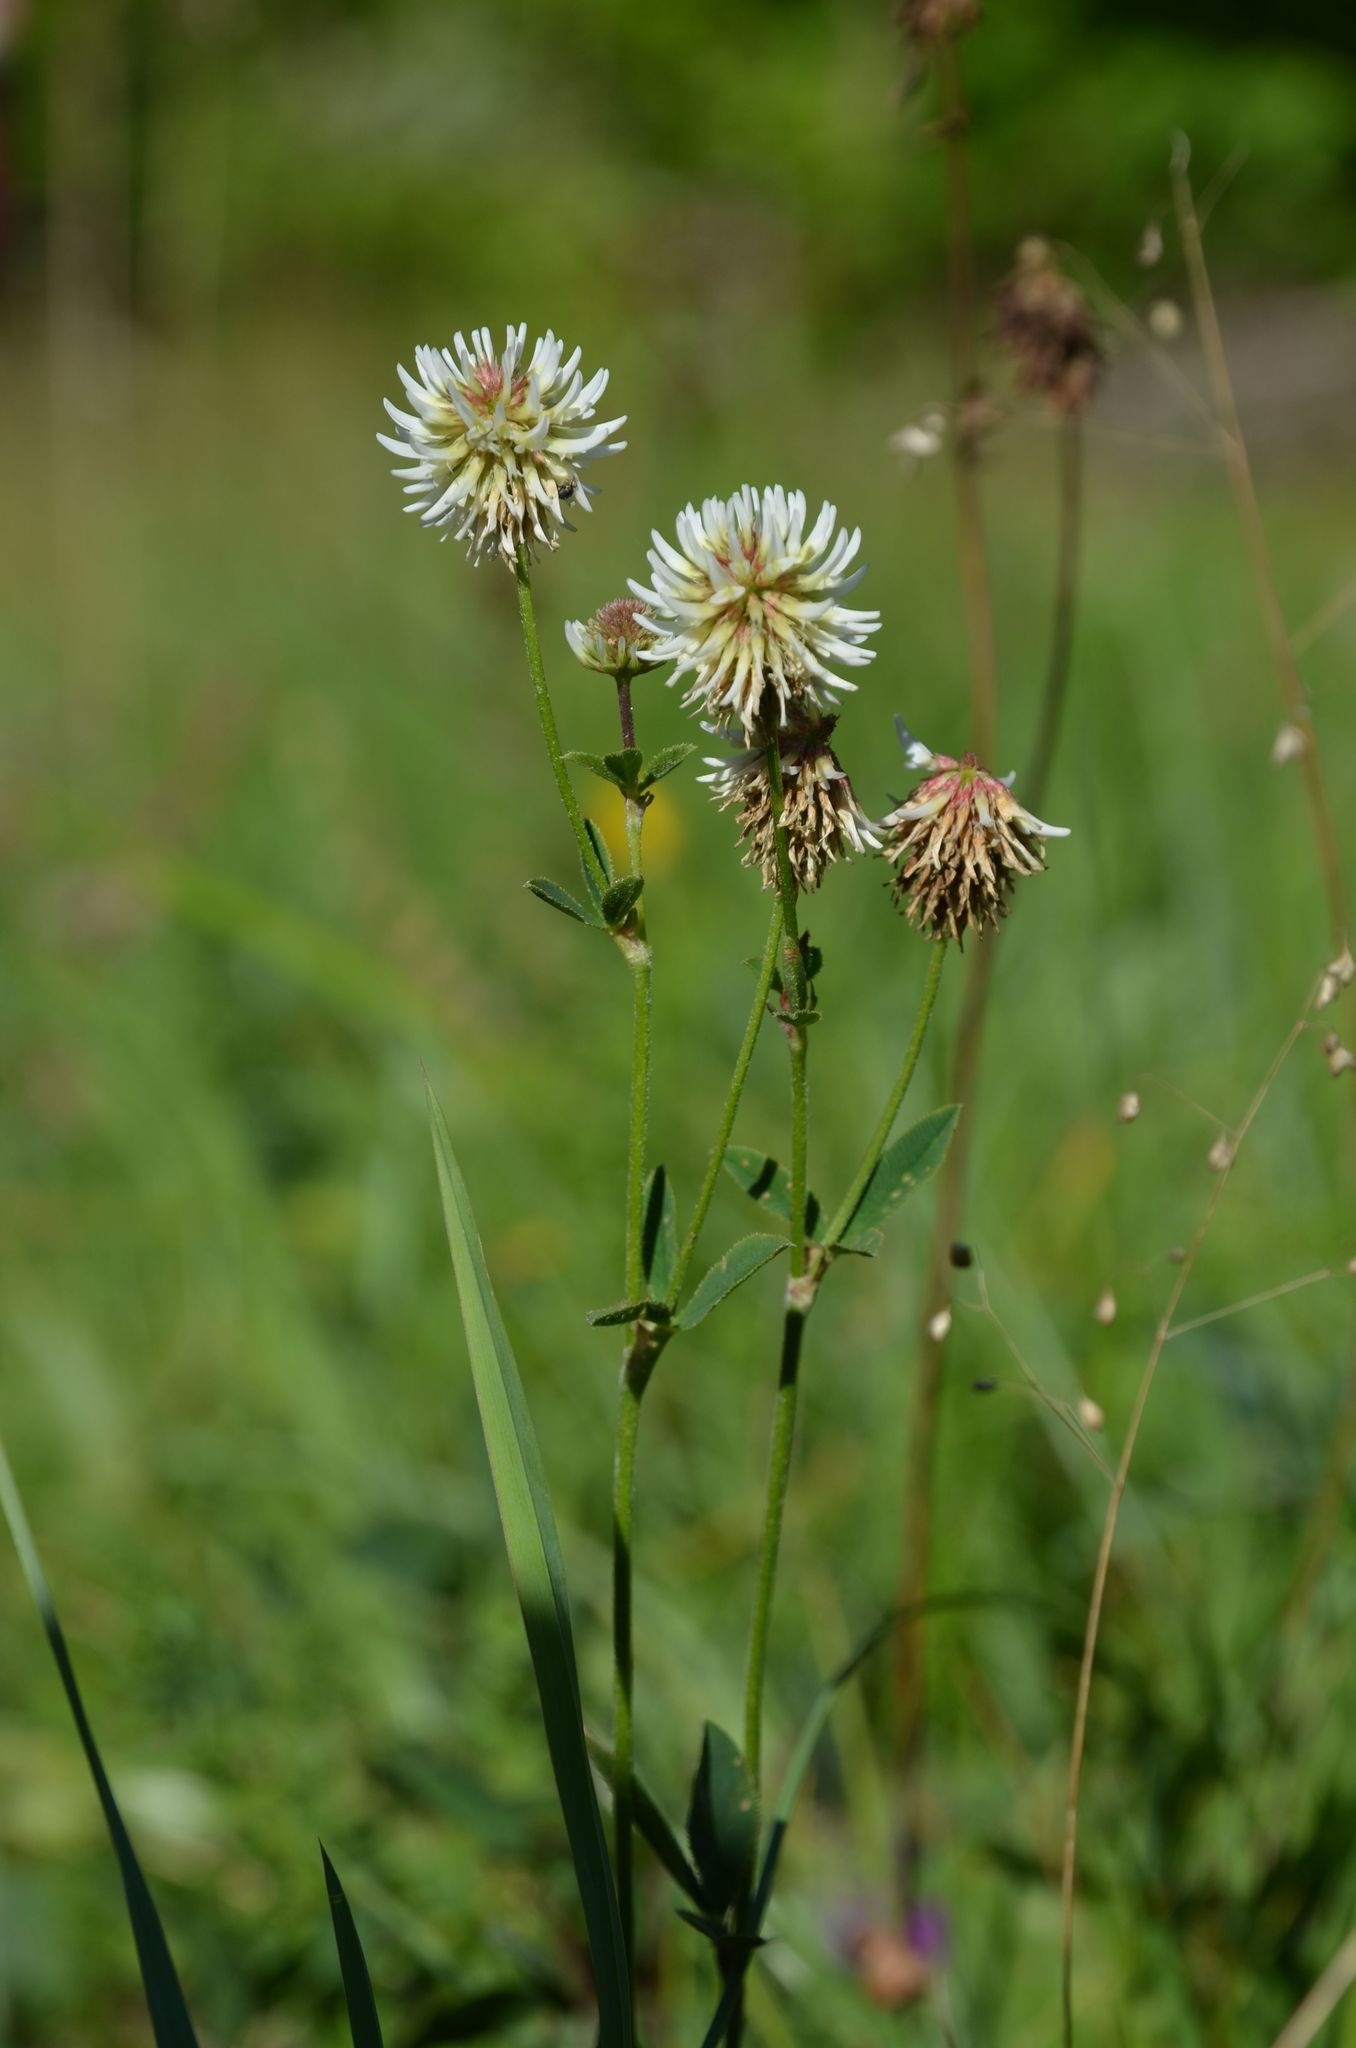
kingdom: Plantae
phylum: Tracheophyta
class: Magnoliopsida
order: Fabales
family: Fabaceae
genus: Trifolium
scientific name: Trifolium montanum
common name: Mountain clover
